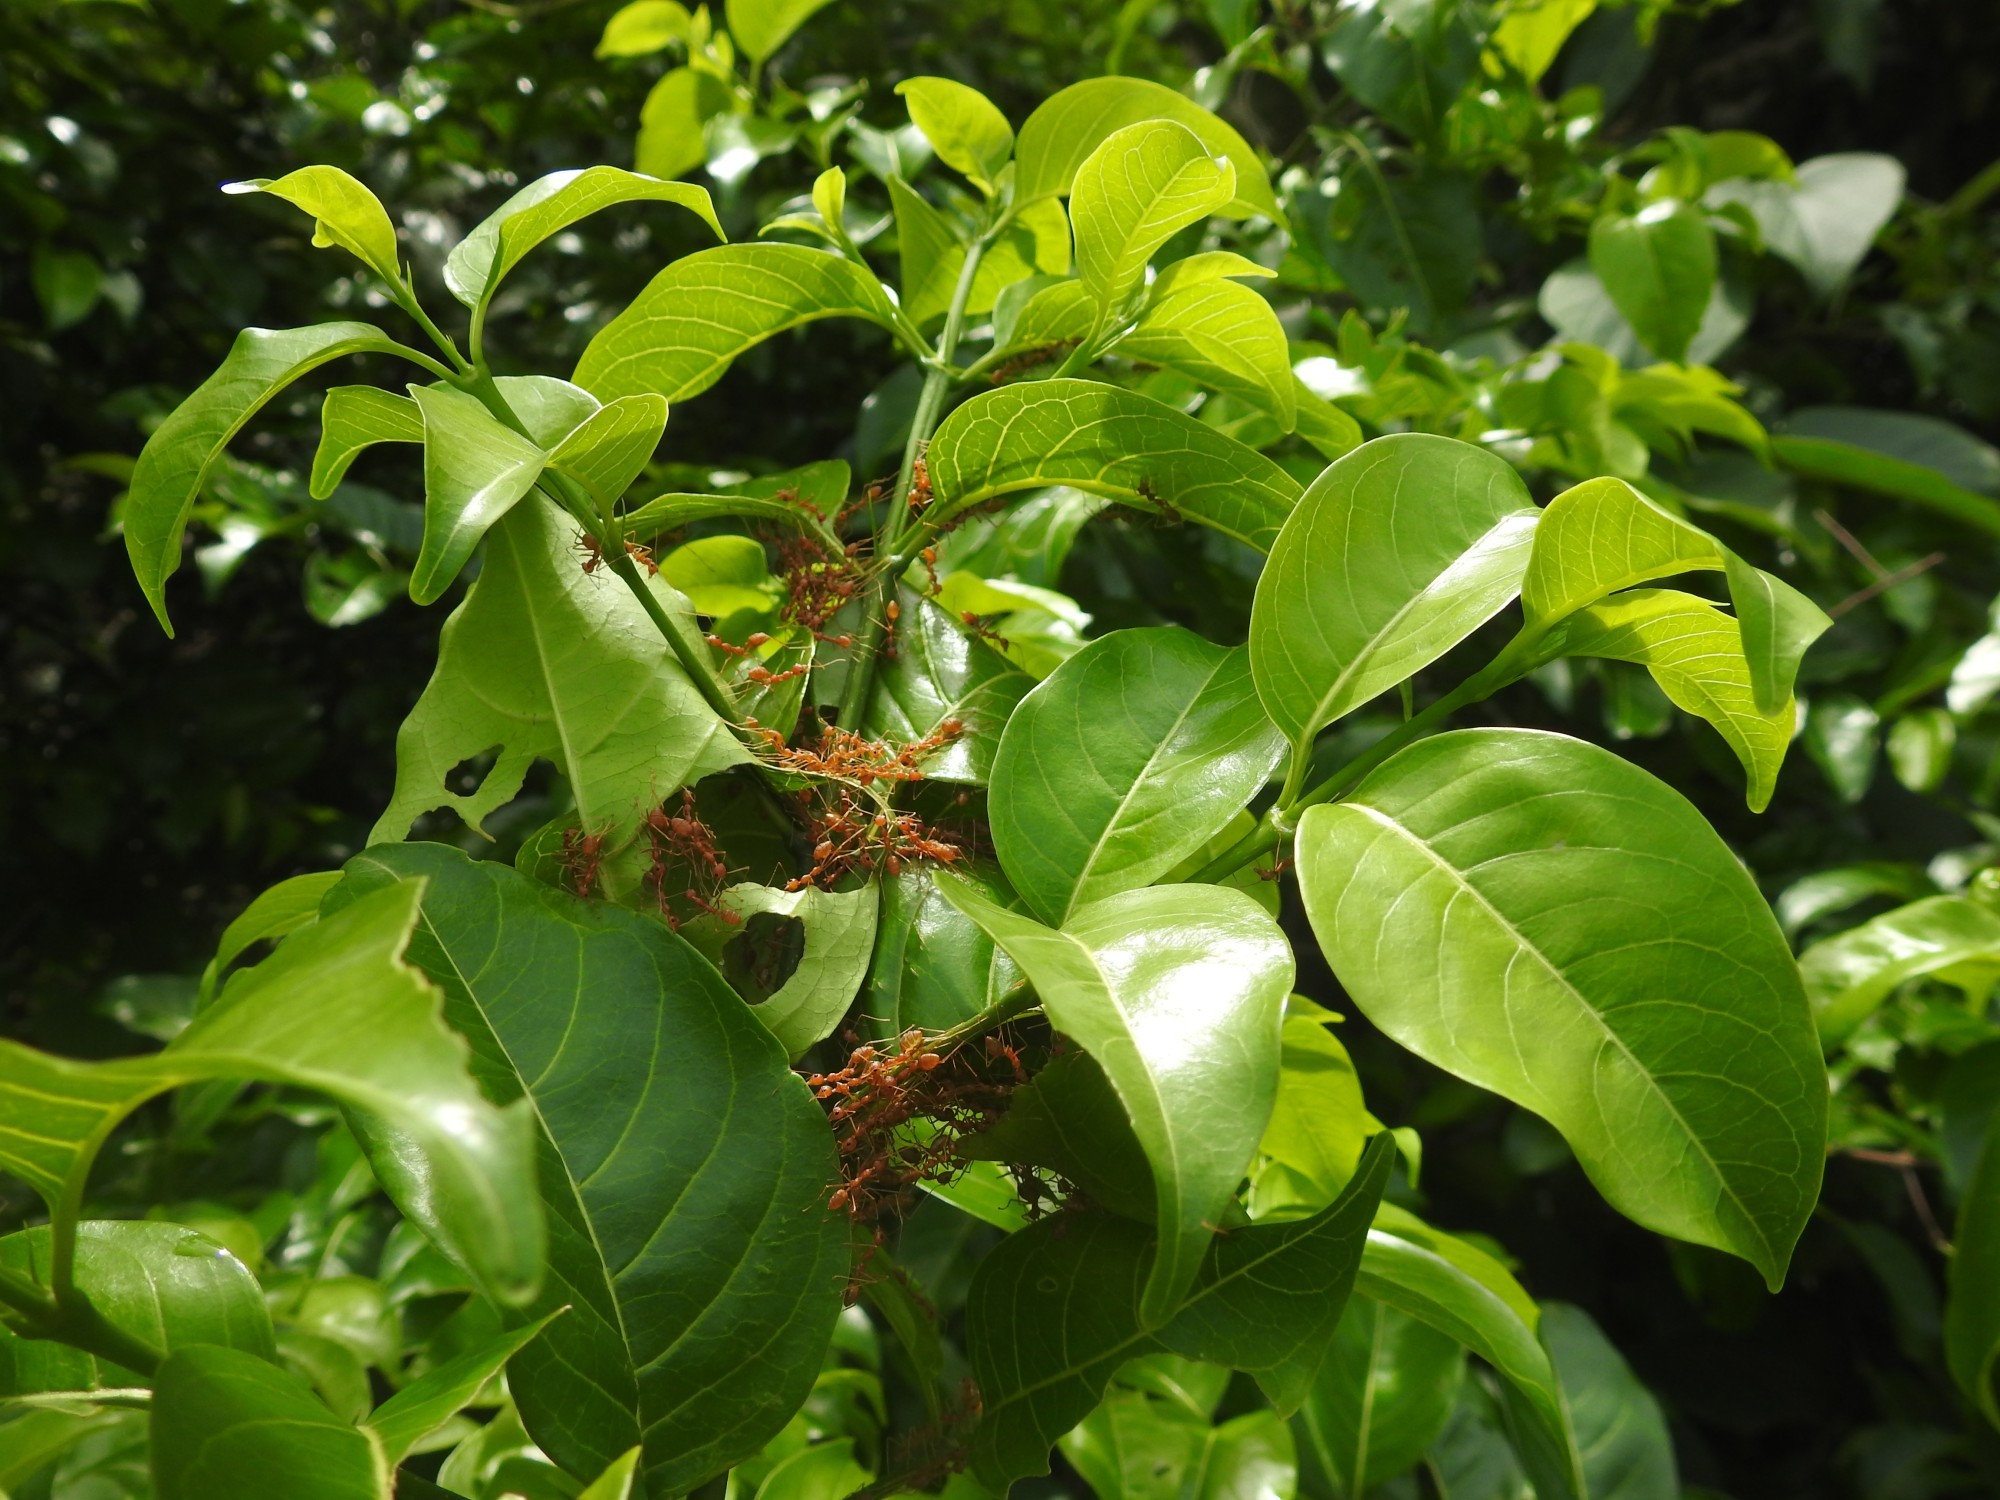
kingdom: Animalia
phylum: Arthropoda
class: Insecta
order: Hymenoptera
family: Formicidae
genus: Oecophylla
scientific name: Oecophylla smaragdina
